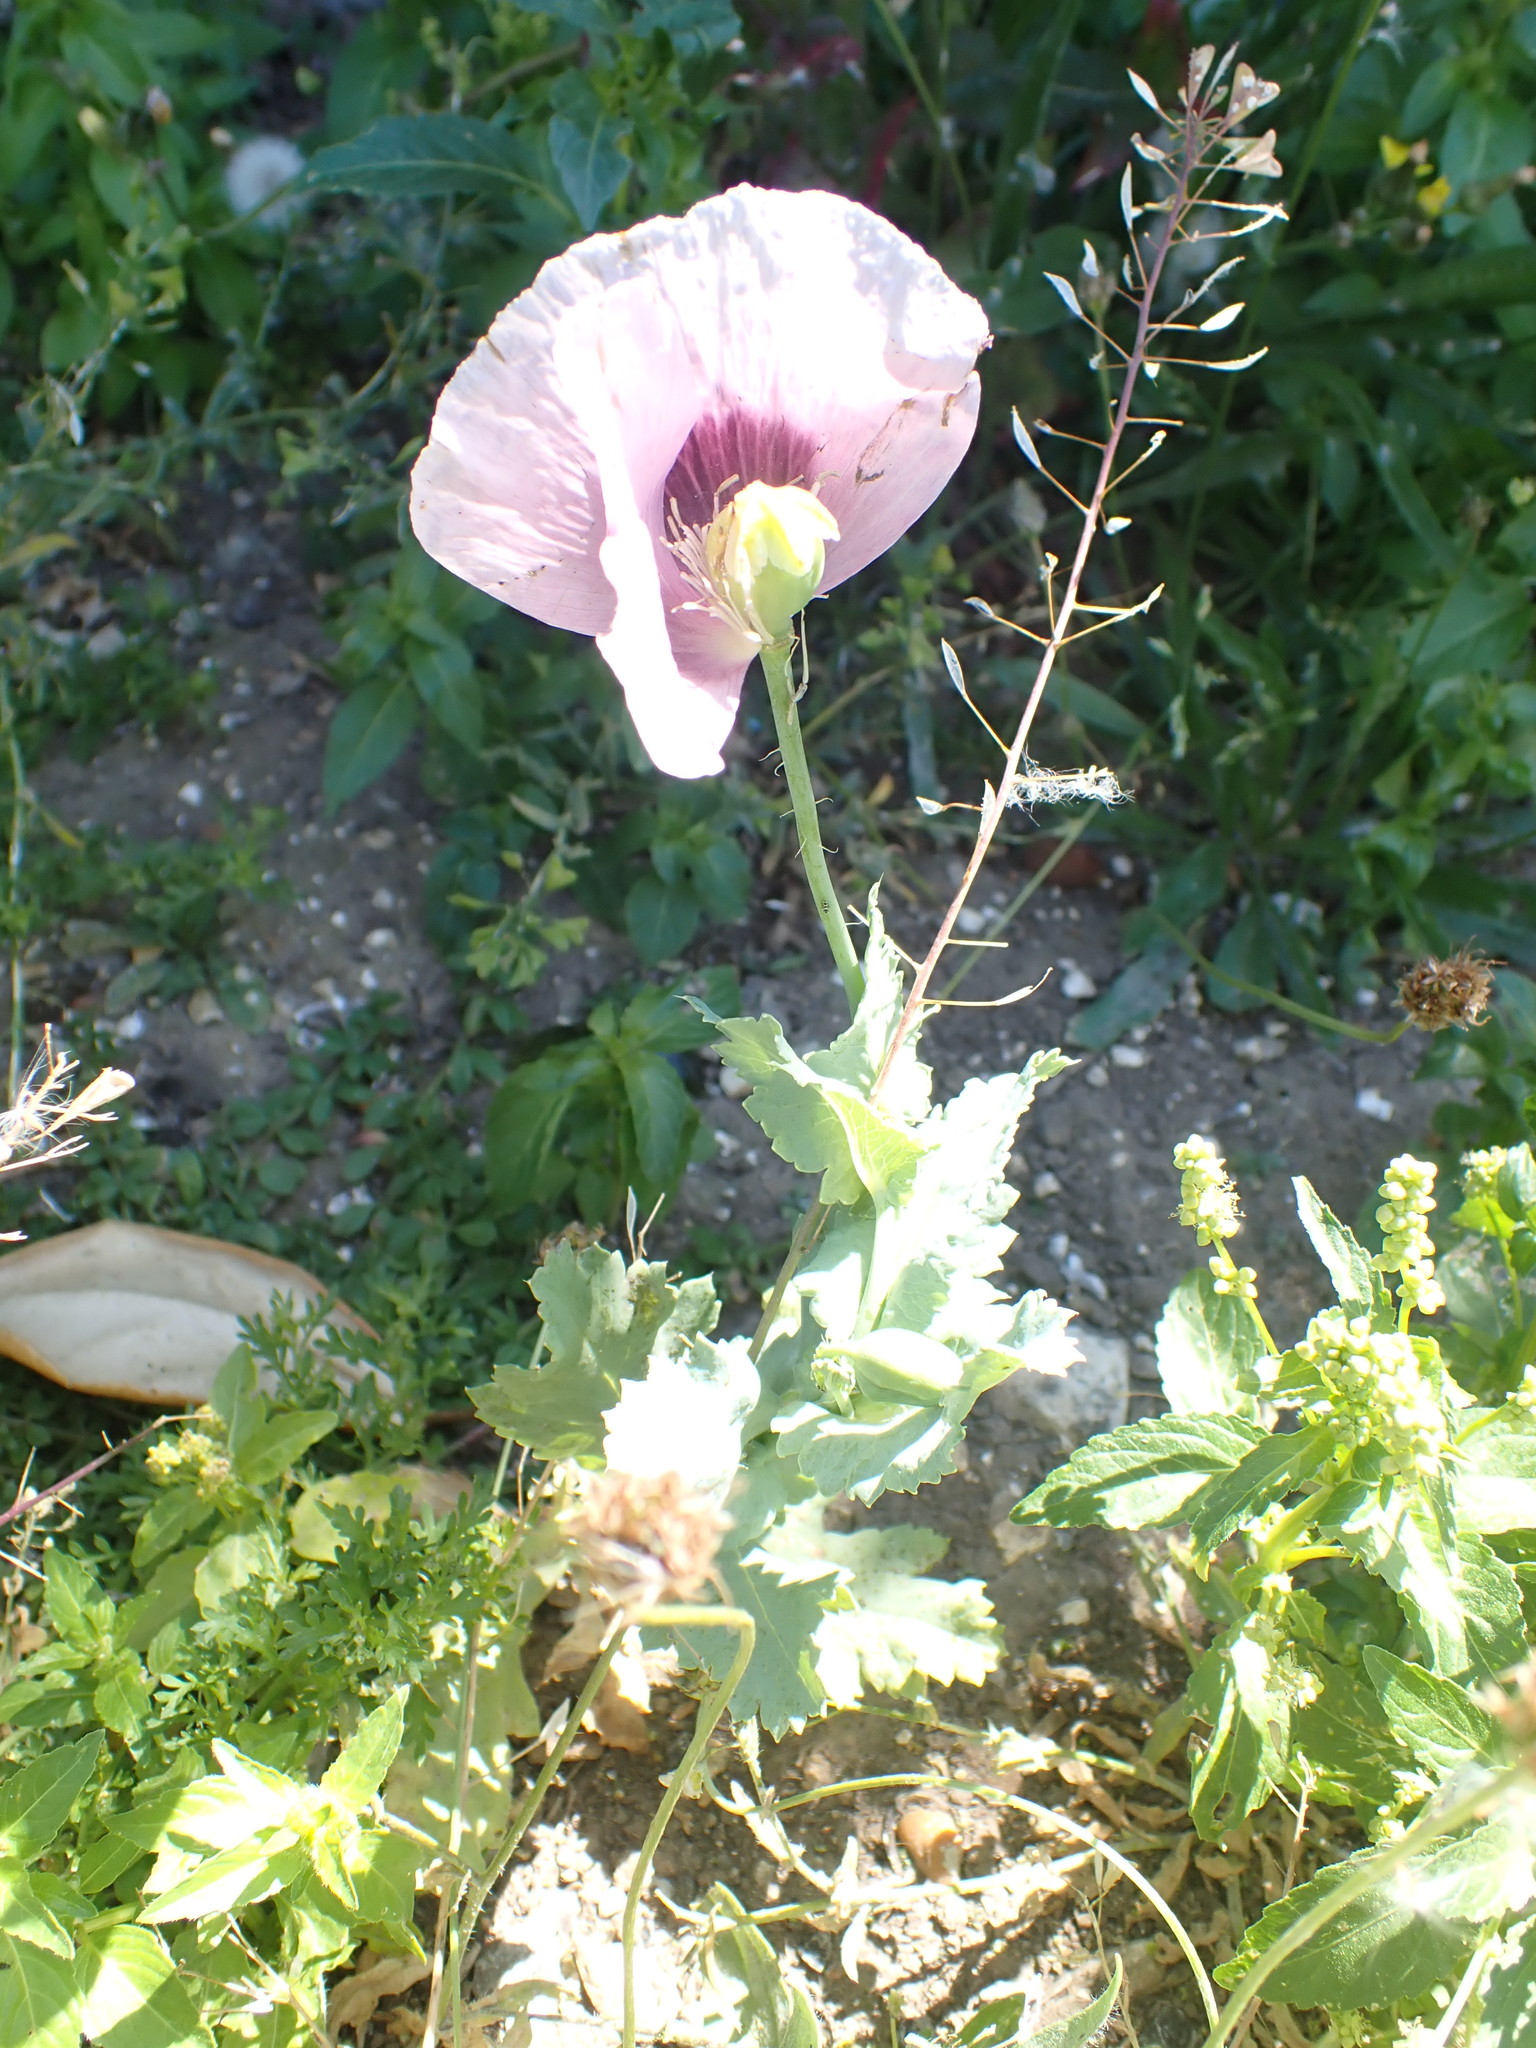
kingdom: Plantae
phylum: Tracheophyta
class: Magnoliopsida
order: Ranunculales
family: Papaveraceae
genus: Papaver
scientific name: Papaver somniferum
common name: Opium poppy
